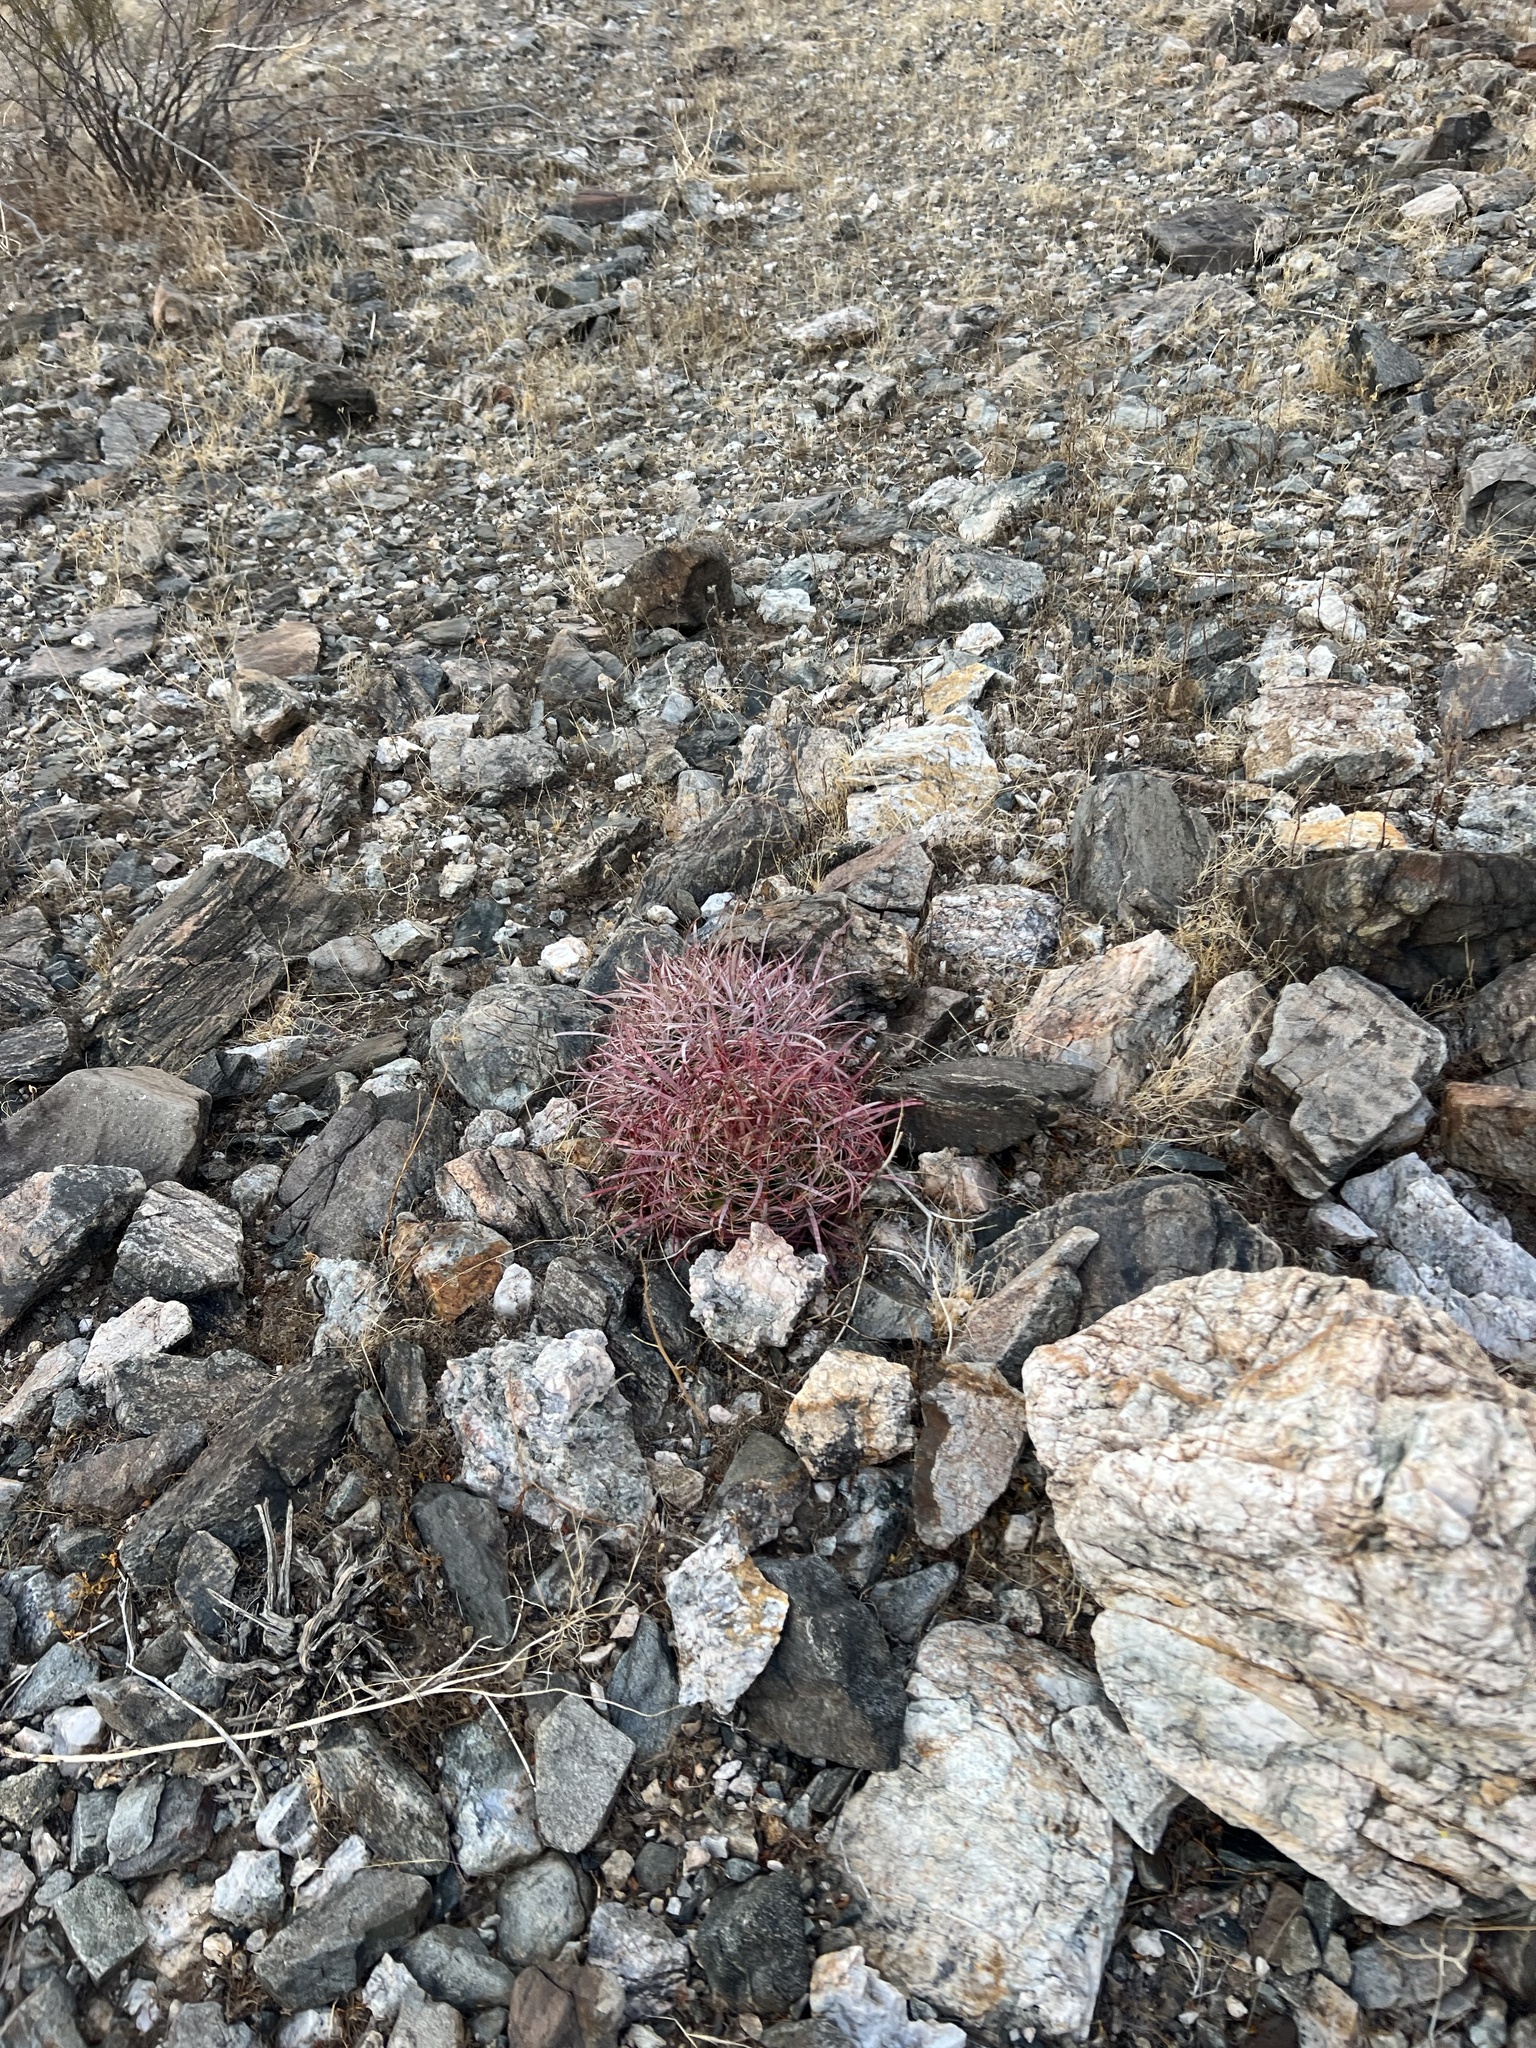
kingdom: Plantae
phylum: Tracheophyta
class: Magnoliopsida
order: Caryophyllales
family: Cactaceae
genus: Ferocactus
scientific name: Ferocactus cylindraceus
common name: California barrel cactus
